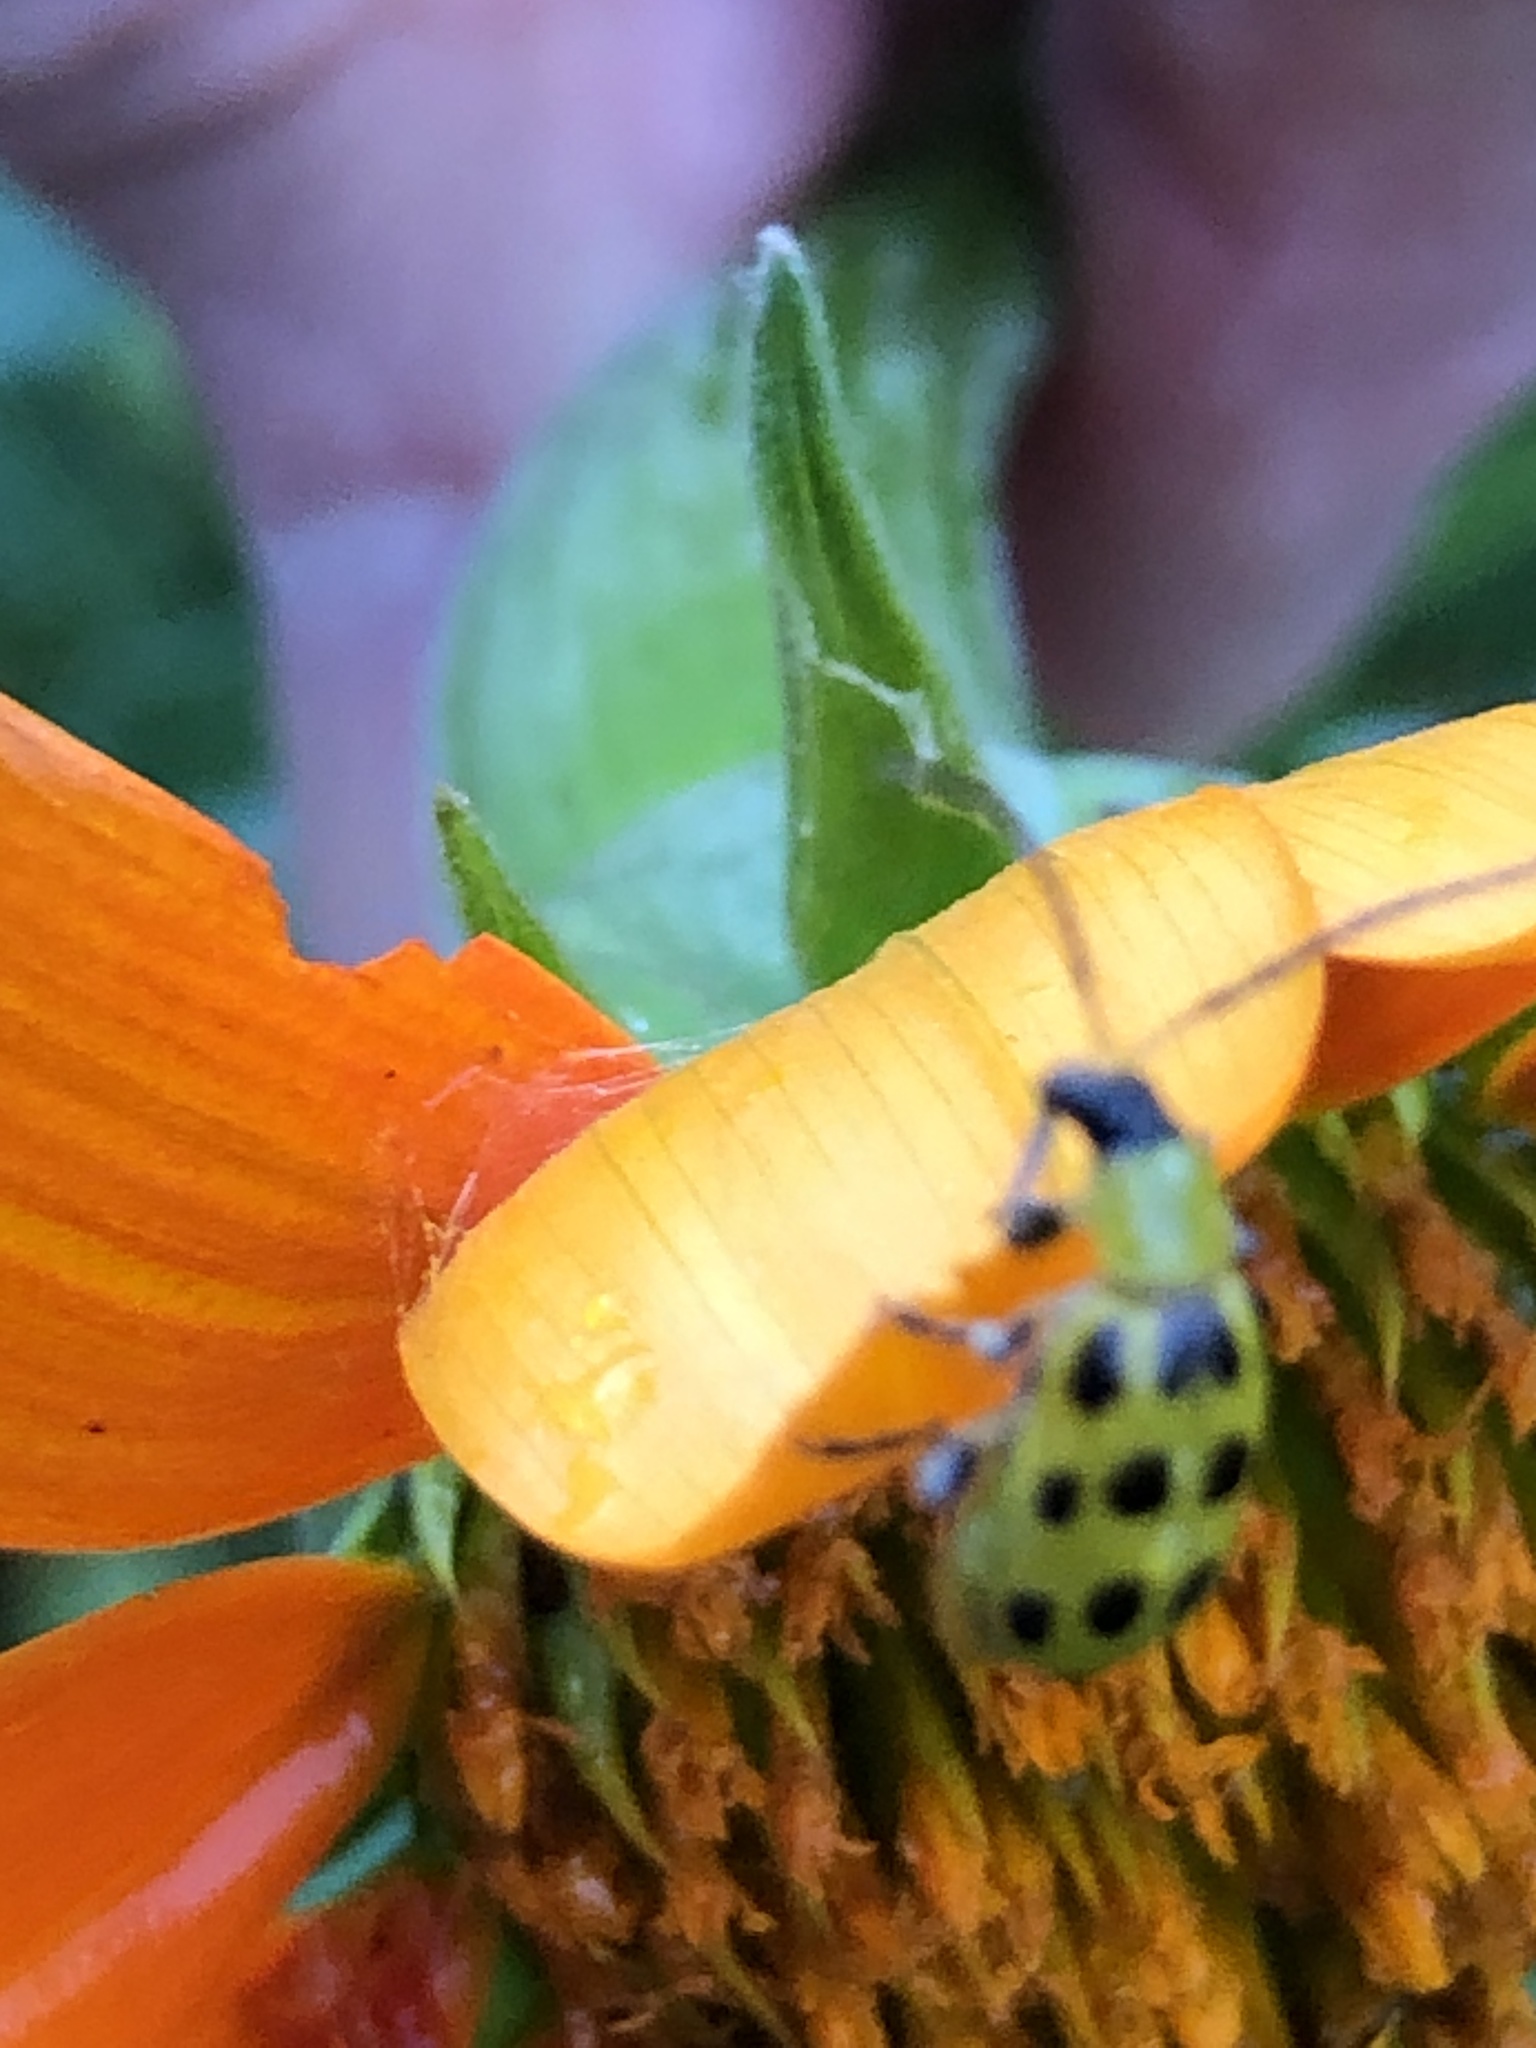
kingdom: Animalia
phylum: Arthropoda
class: Insecta
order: Coleoptera
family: Chrysomelidae
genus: Diabrotica
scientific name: Diabrotica undecimpunctata
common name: Spotted cucumber beetle
